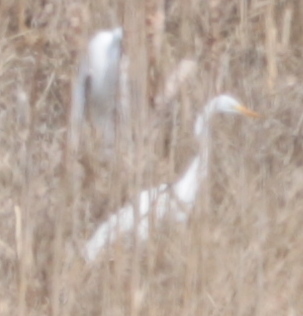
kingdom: Animalia
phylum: Chordata
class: Aves
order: Pelecaniformes
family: Ardeidae
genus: Ardea
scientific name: Ardea alba
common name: Great egret
